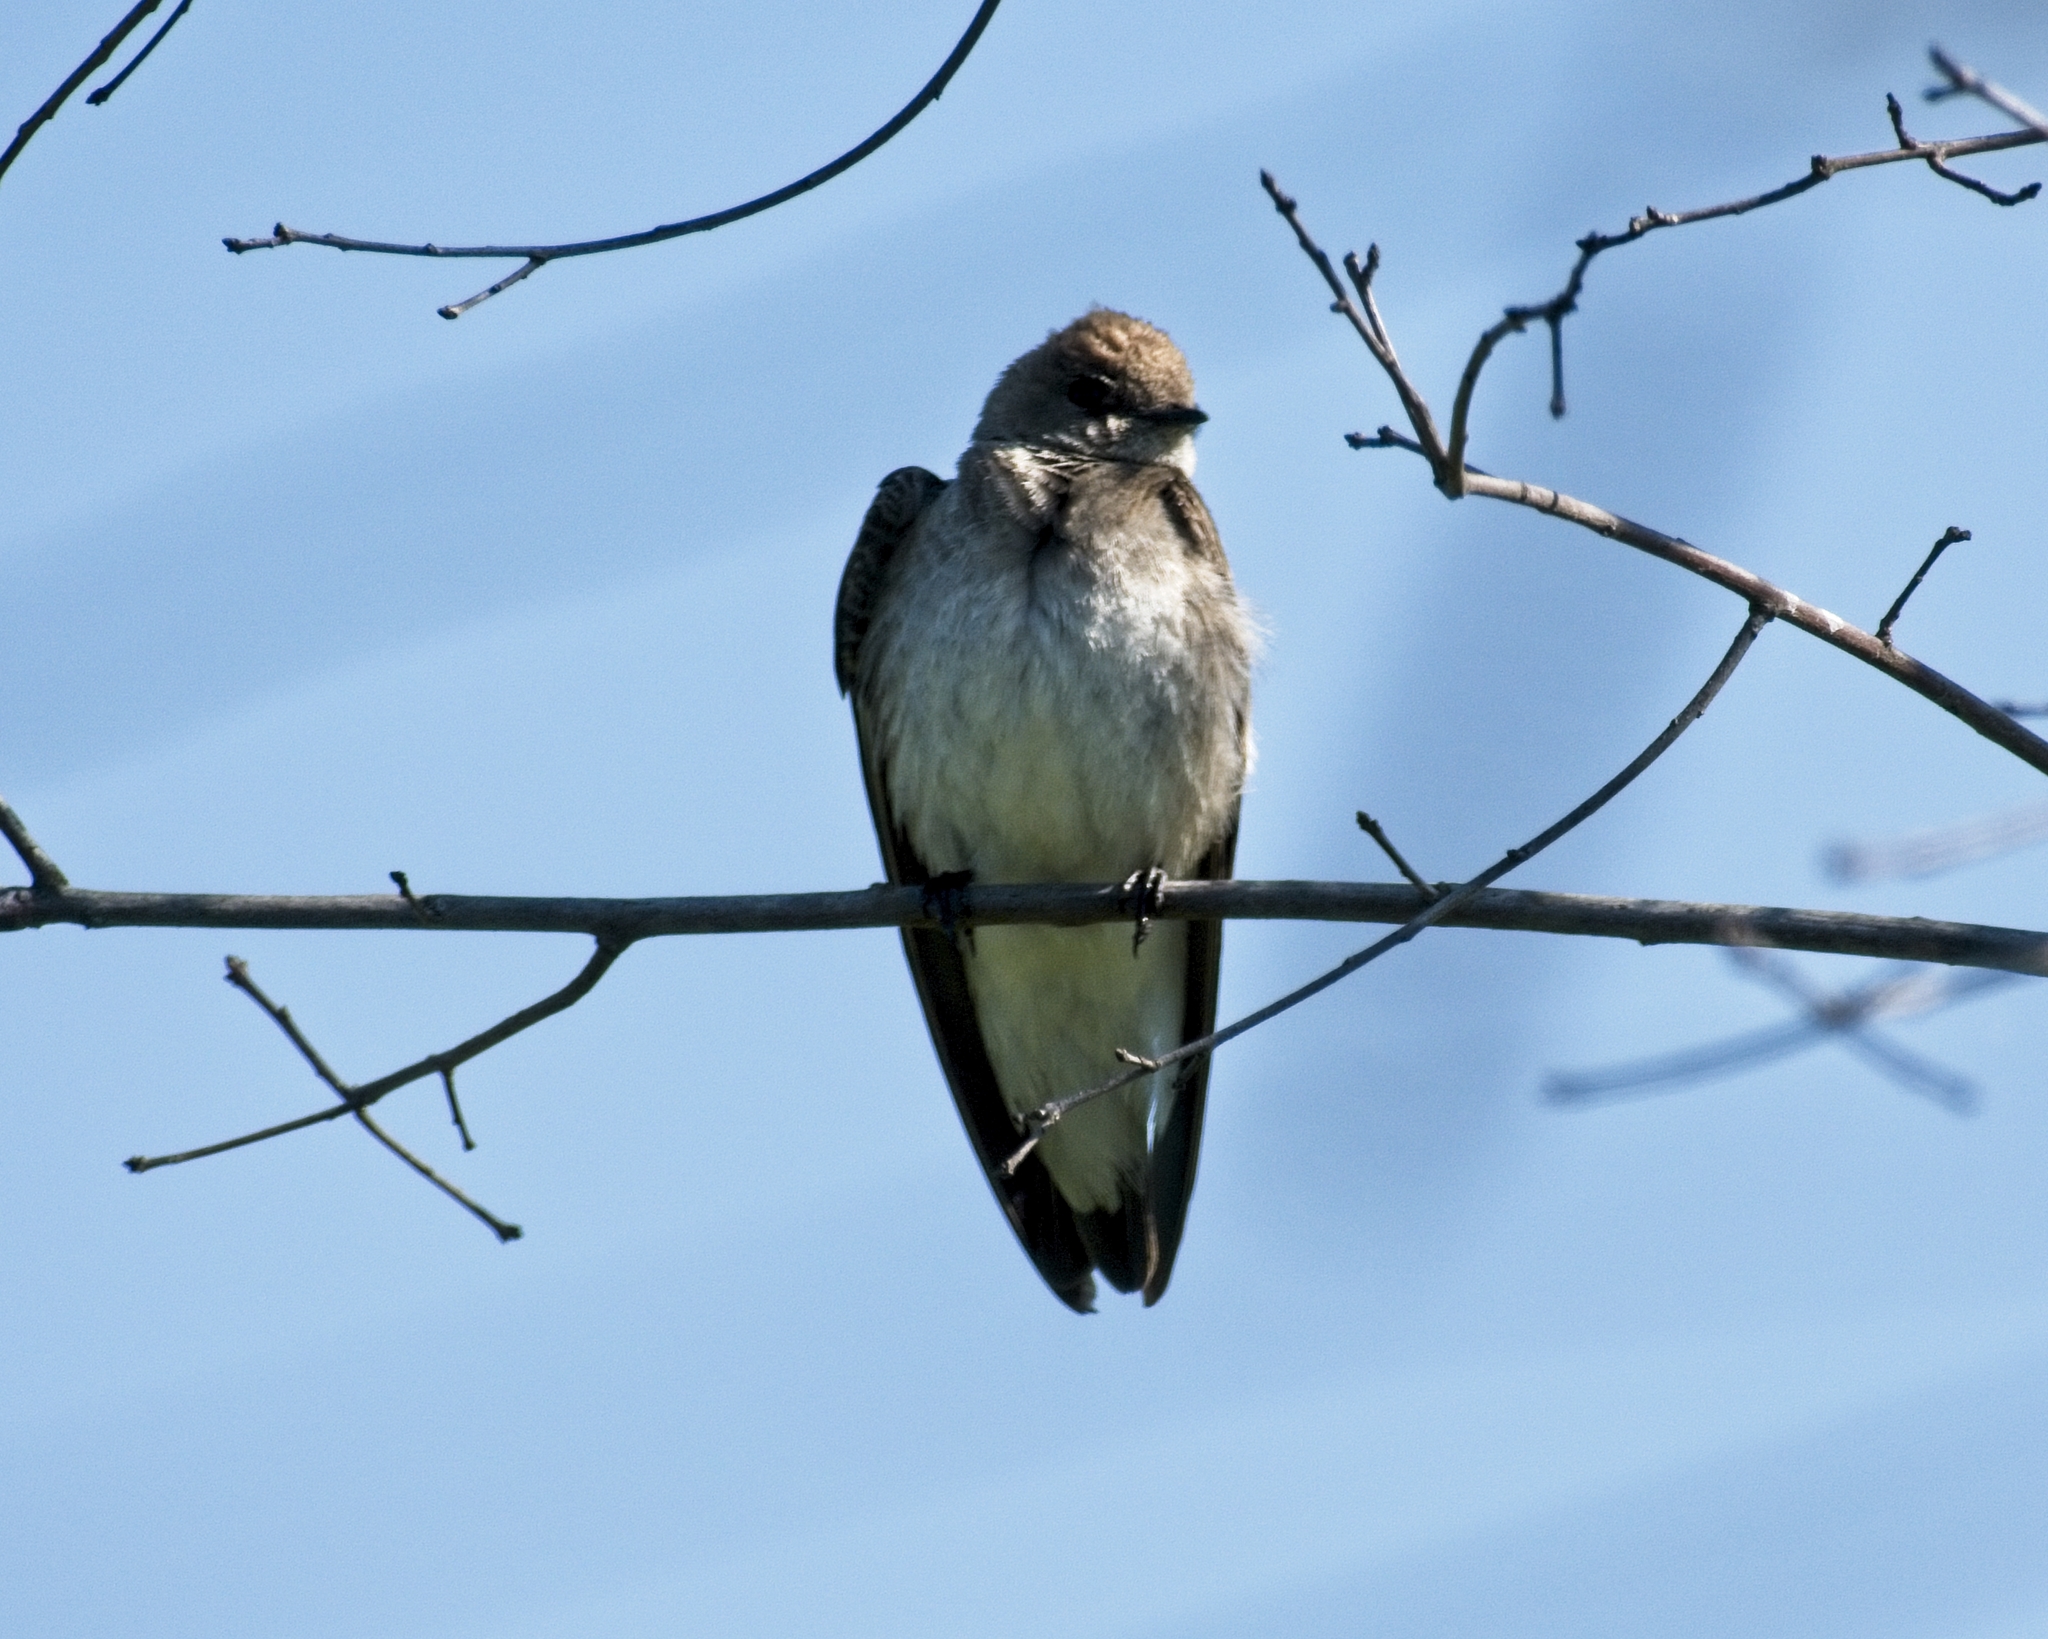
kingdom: Animalia
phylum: Chordata
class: Aves
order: Passeriformes
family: Hirundinidae
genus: Stelgidopteryx
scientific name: Stelgidopteryx serripennis
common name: Northern rough-winged swallow
